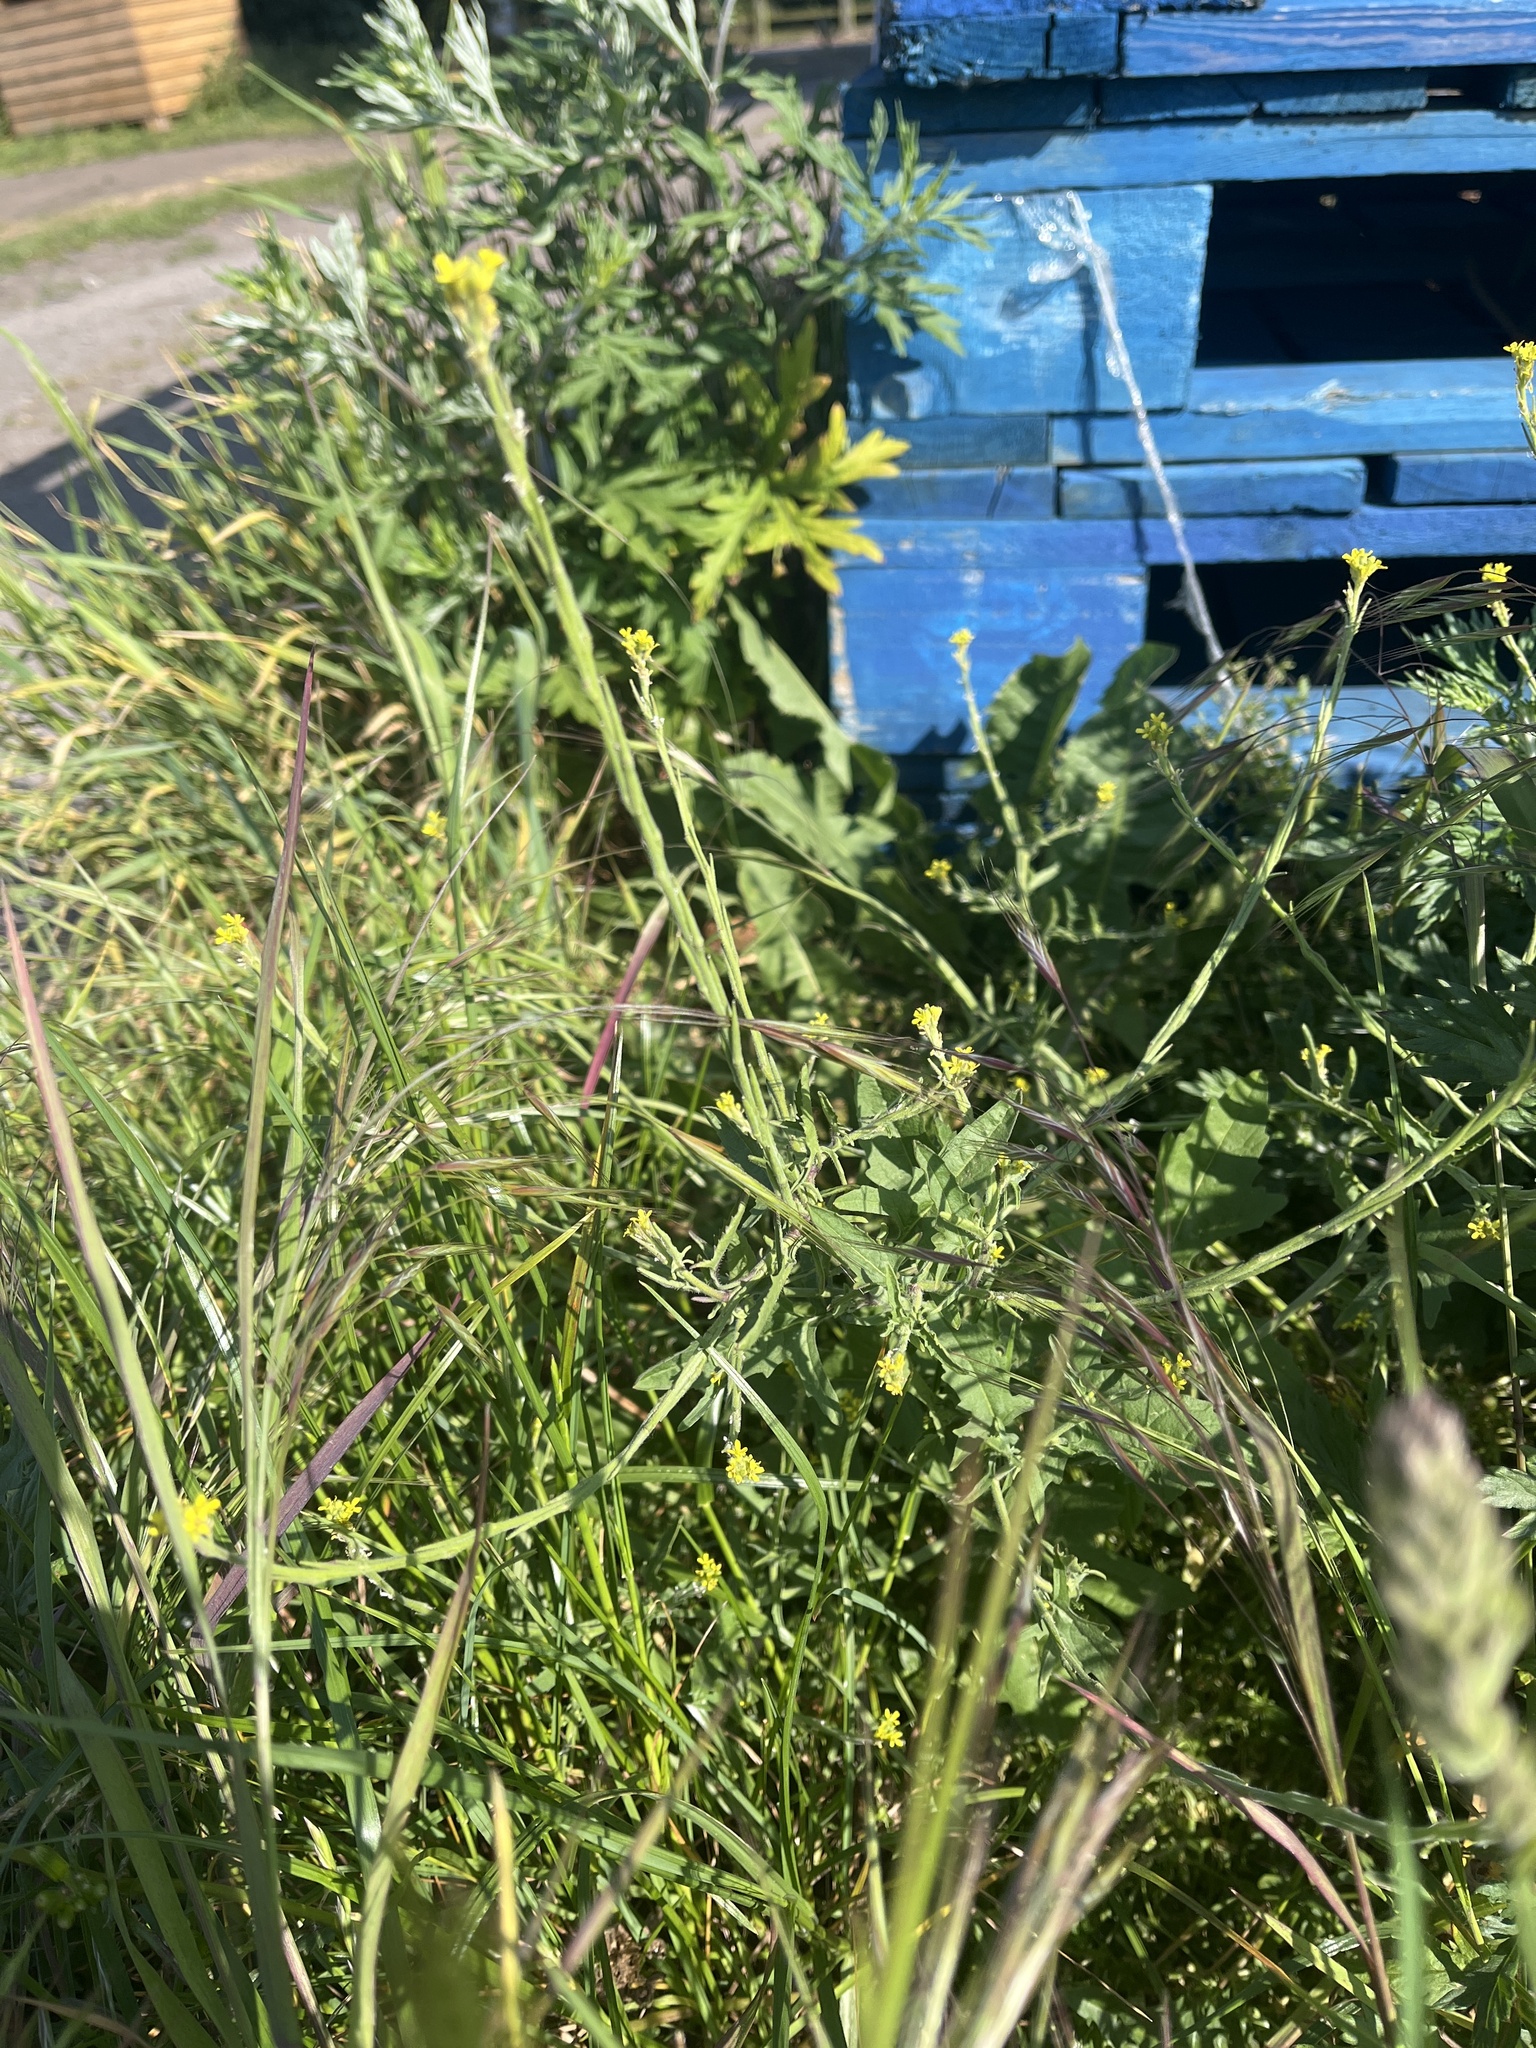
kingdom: Plantae
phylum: Tracheophyta
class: Magnoliopsida
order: Brassicales
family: Brassicaceae
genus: Sisymbrium
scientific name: Sisymbrium officinale
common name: Hedge mustard
